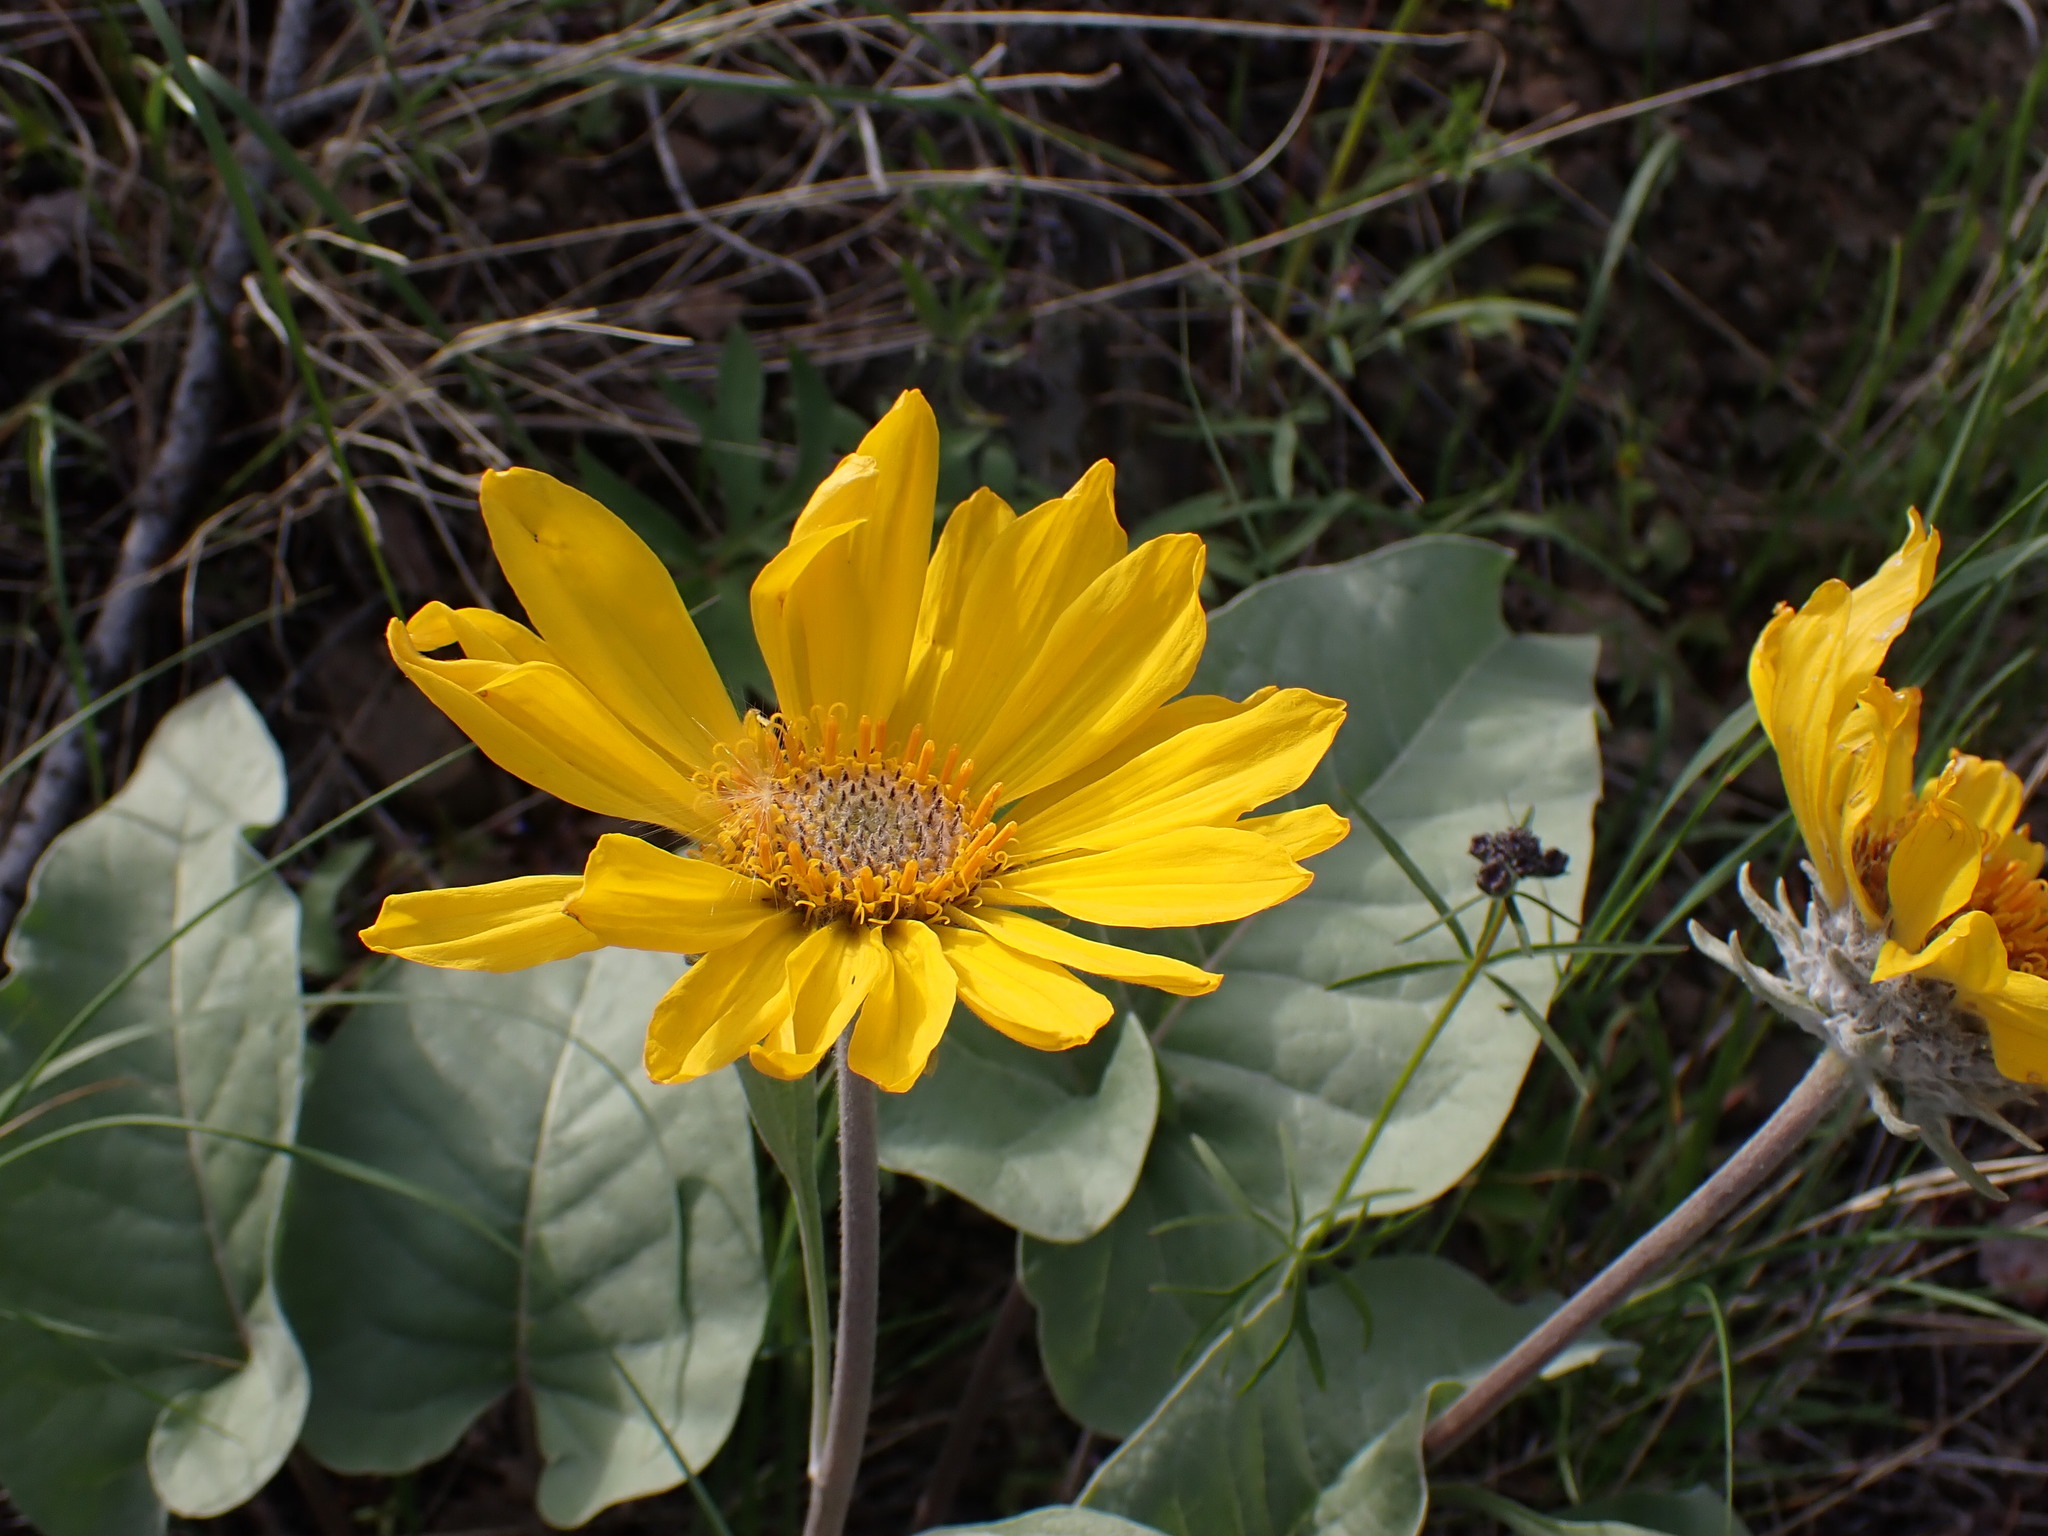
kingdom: Plantae
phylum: Tracheophyta
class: Magnoliopsida
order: Asterales
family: Asteraceae
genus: Wyethia
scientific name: Wyethia sagittata
